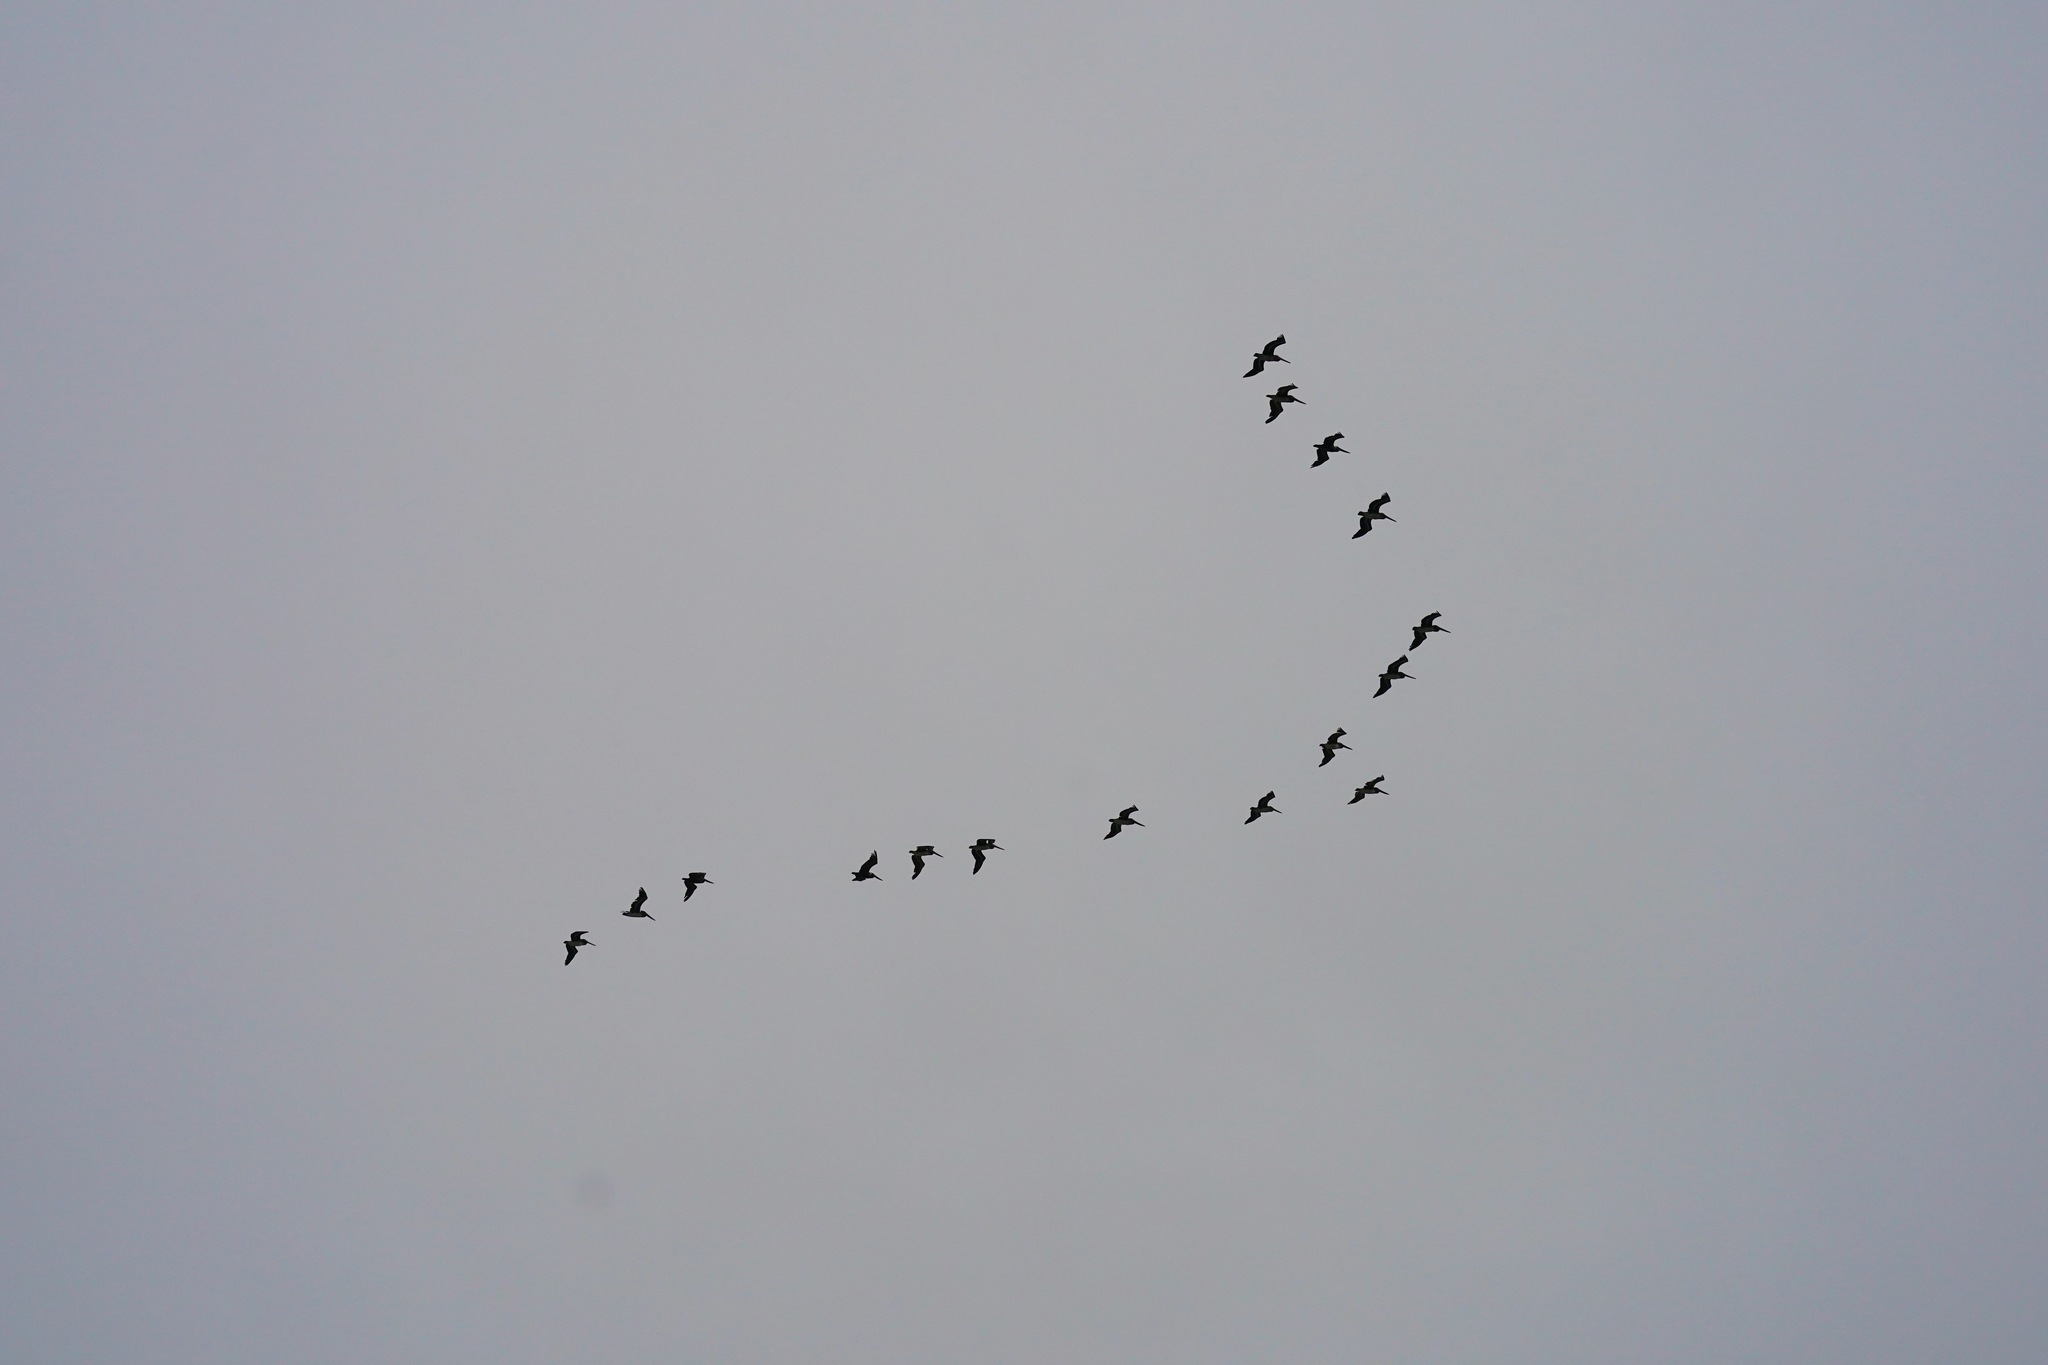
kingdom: Animalia
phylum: Chordata
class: Aves
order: Pelecaniformes
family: Pelecanidae
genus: Pelecanus
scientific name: Pelecanus occidentalis
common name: Brown pelican
